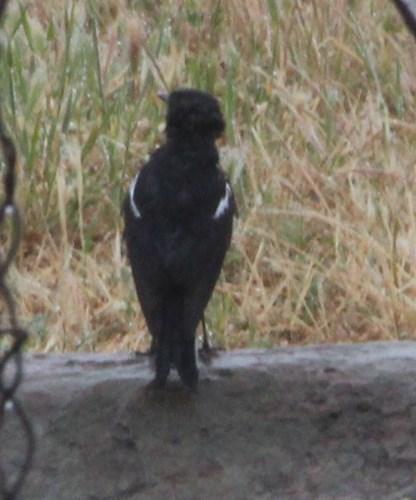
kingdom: Animalia
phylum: Chordata
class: Aves
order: Passeriformes
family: Muscicapidae
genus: Oenanthe
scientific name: Oenanthe monticola
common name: Mountain wheatear
